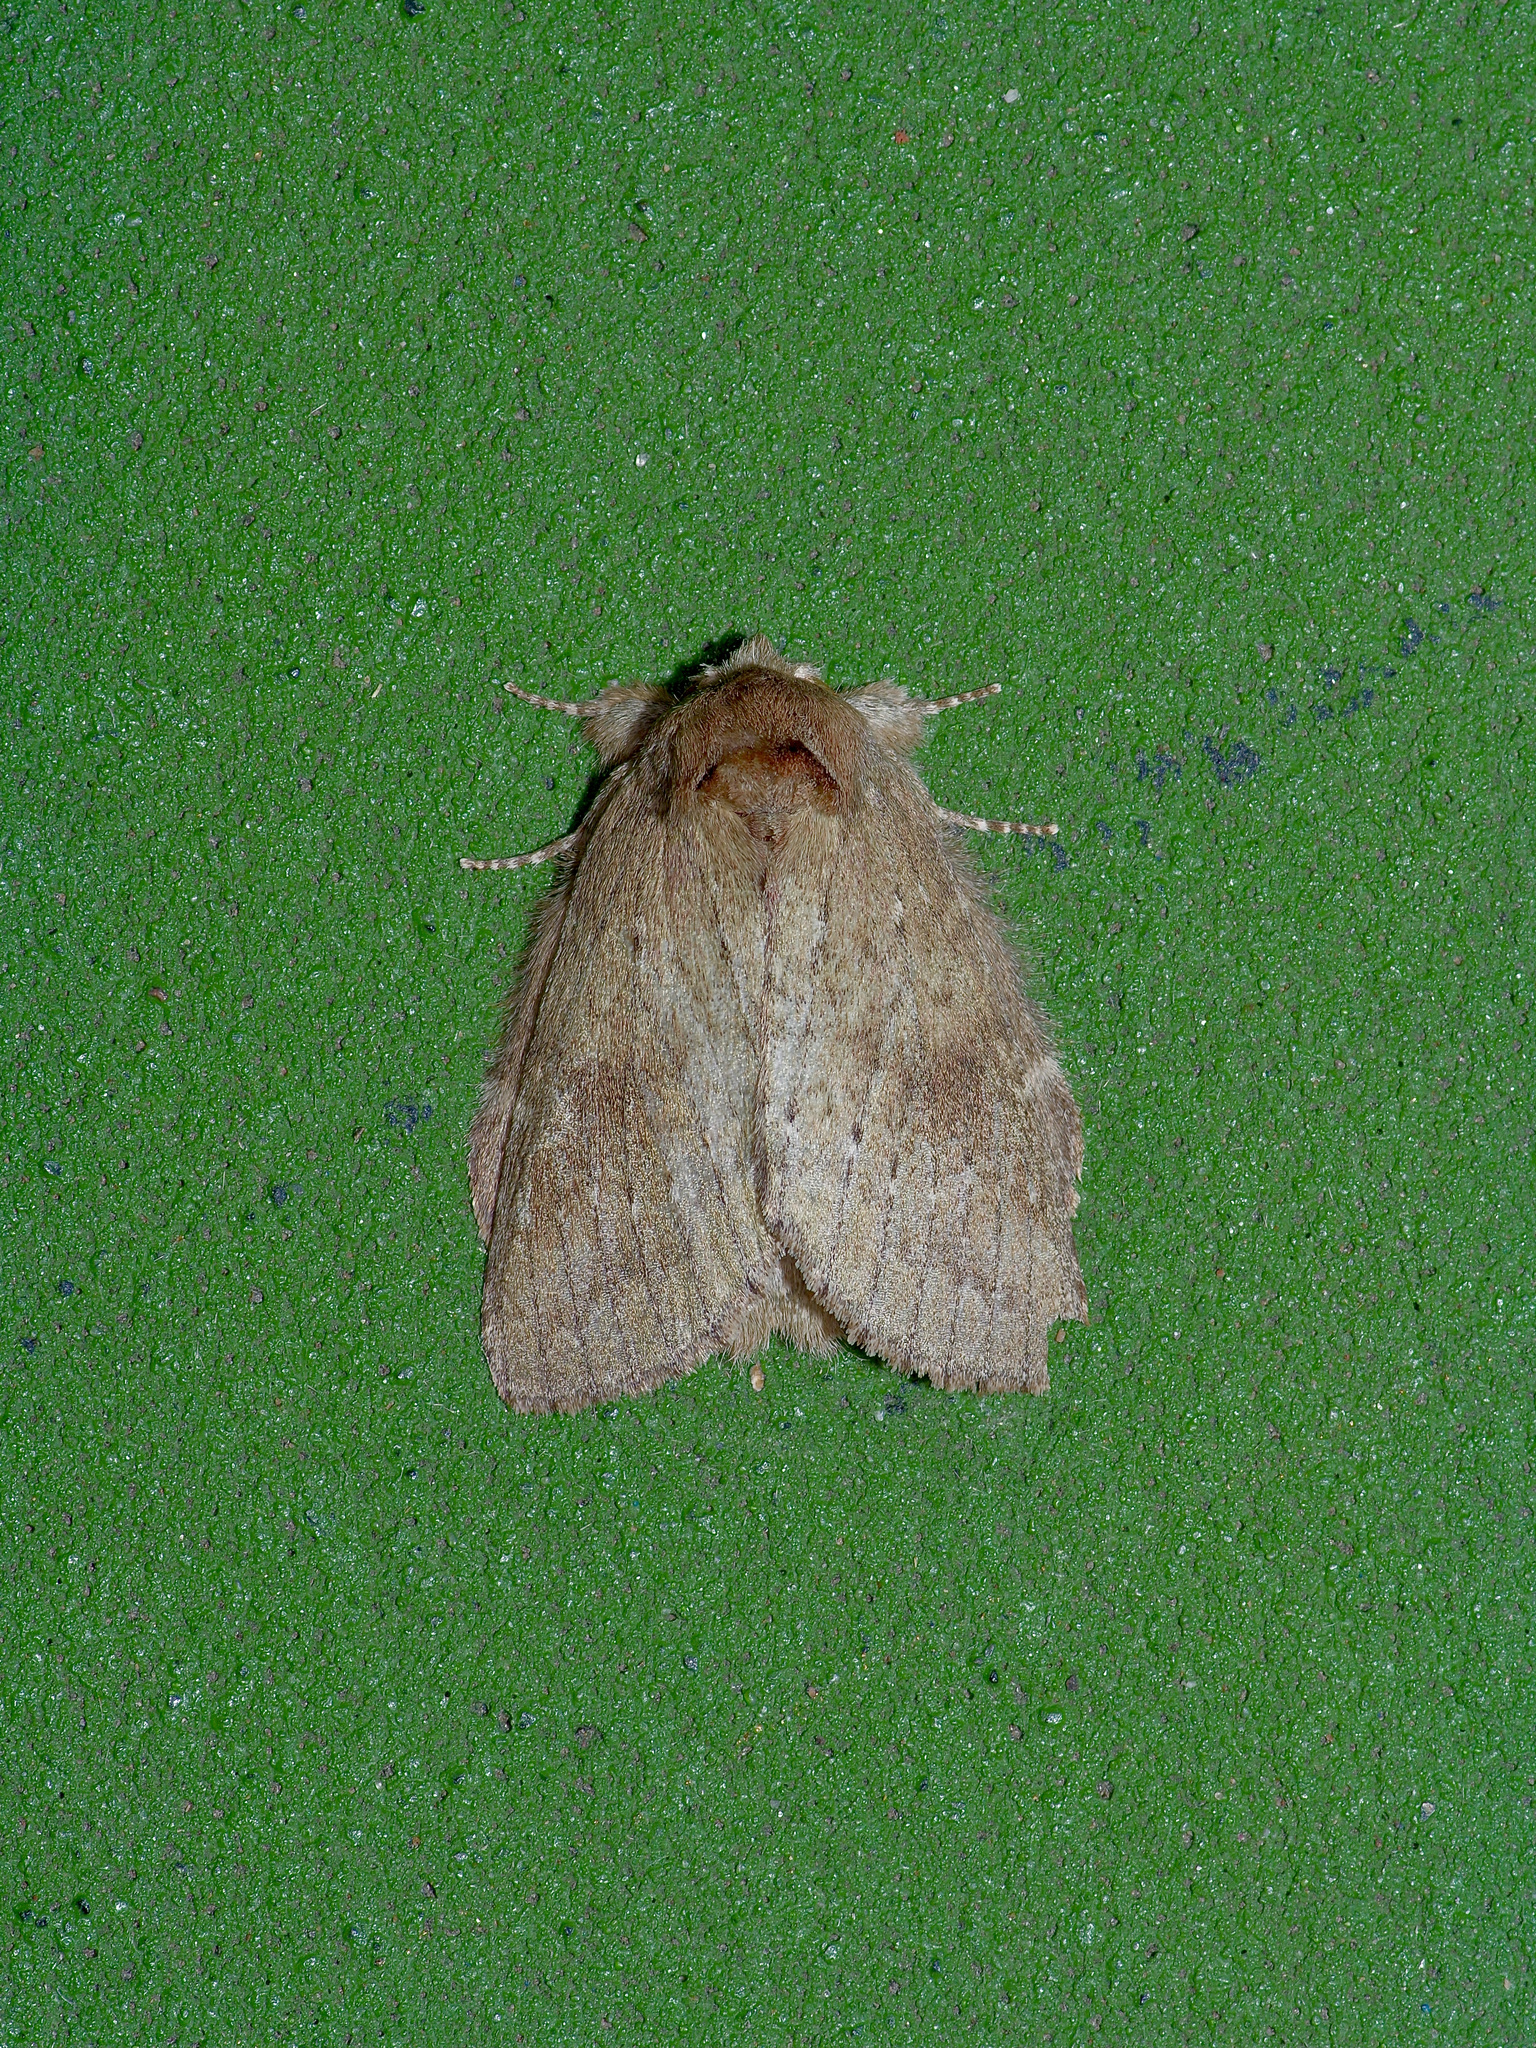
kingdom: Animalia
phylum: Arthropoda
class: Insecta
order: Lepidoptera
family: Notodontidae
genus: Misogada
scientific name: Misogada unicolor
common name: Drab prominent
